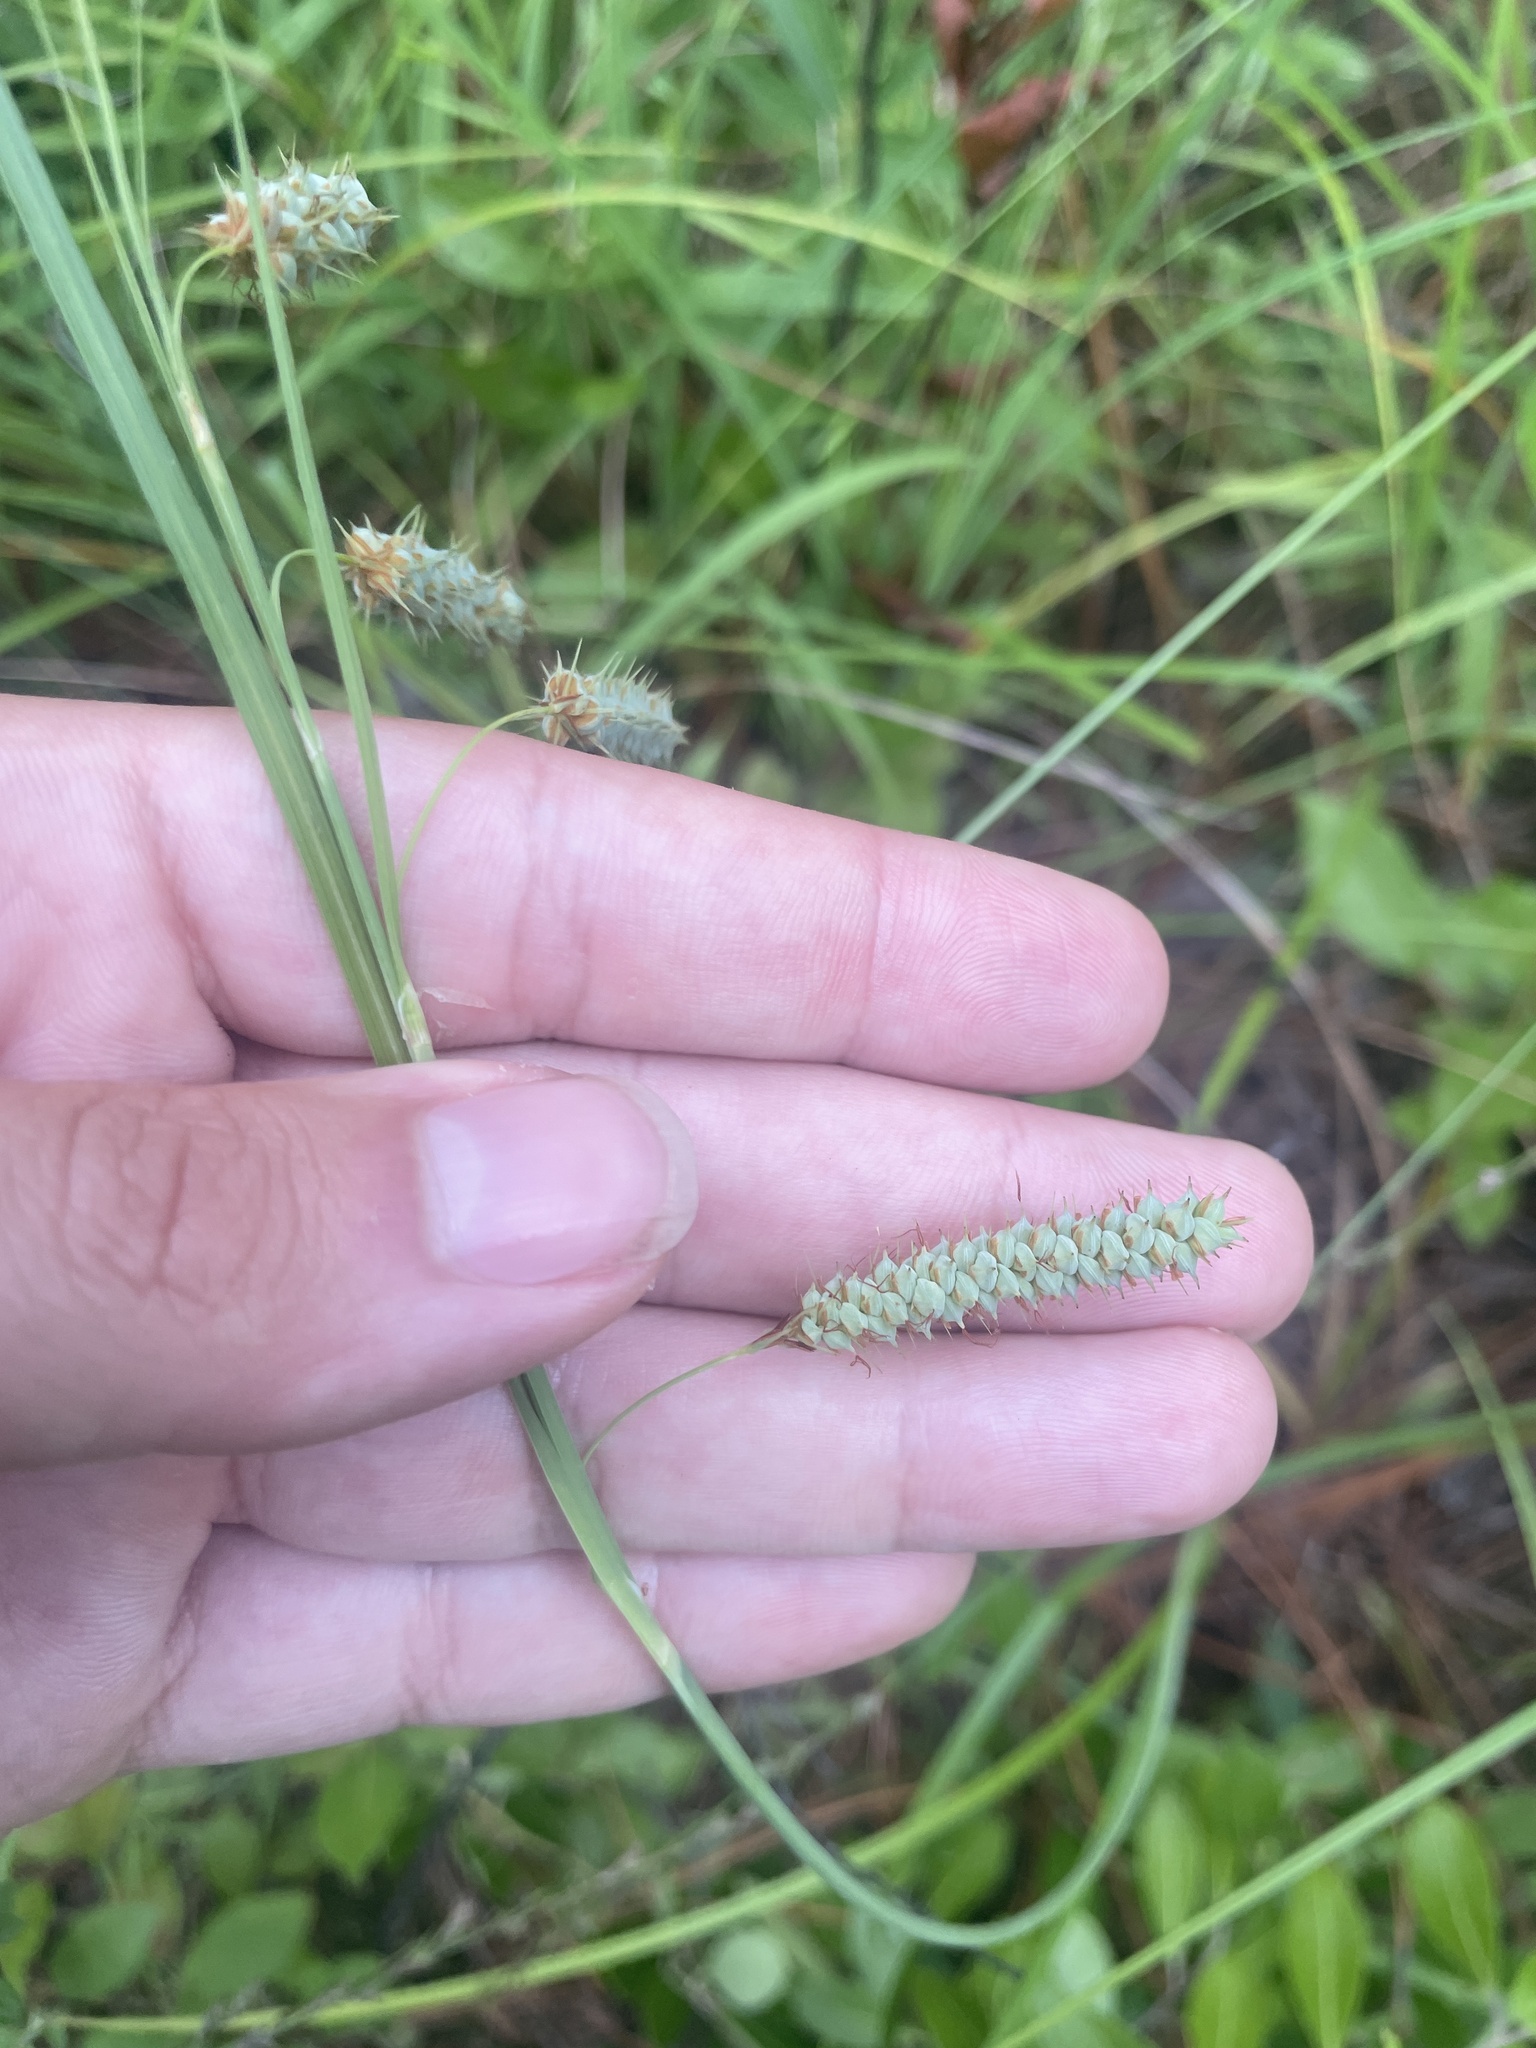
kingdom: Plantae
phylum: Tracheophyta
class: Liliopsida
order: Poales
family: Cyperaceae
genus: Carex
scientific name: Carex glaucescens
